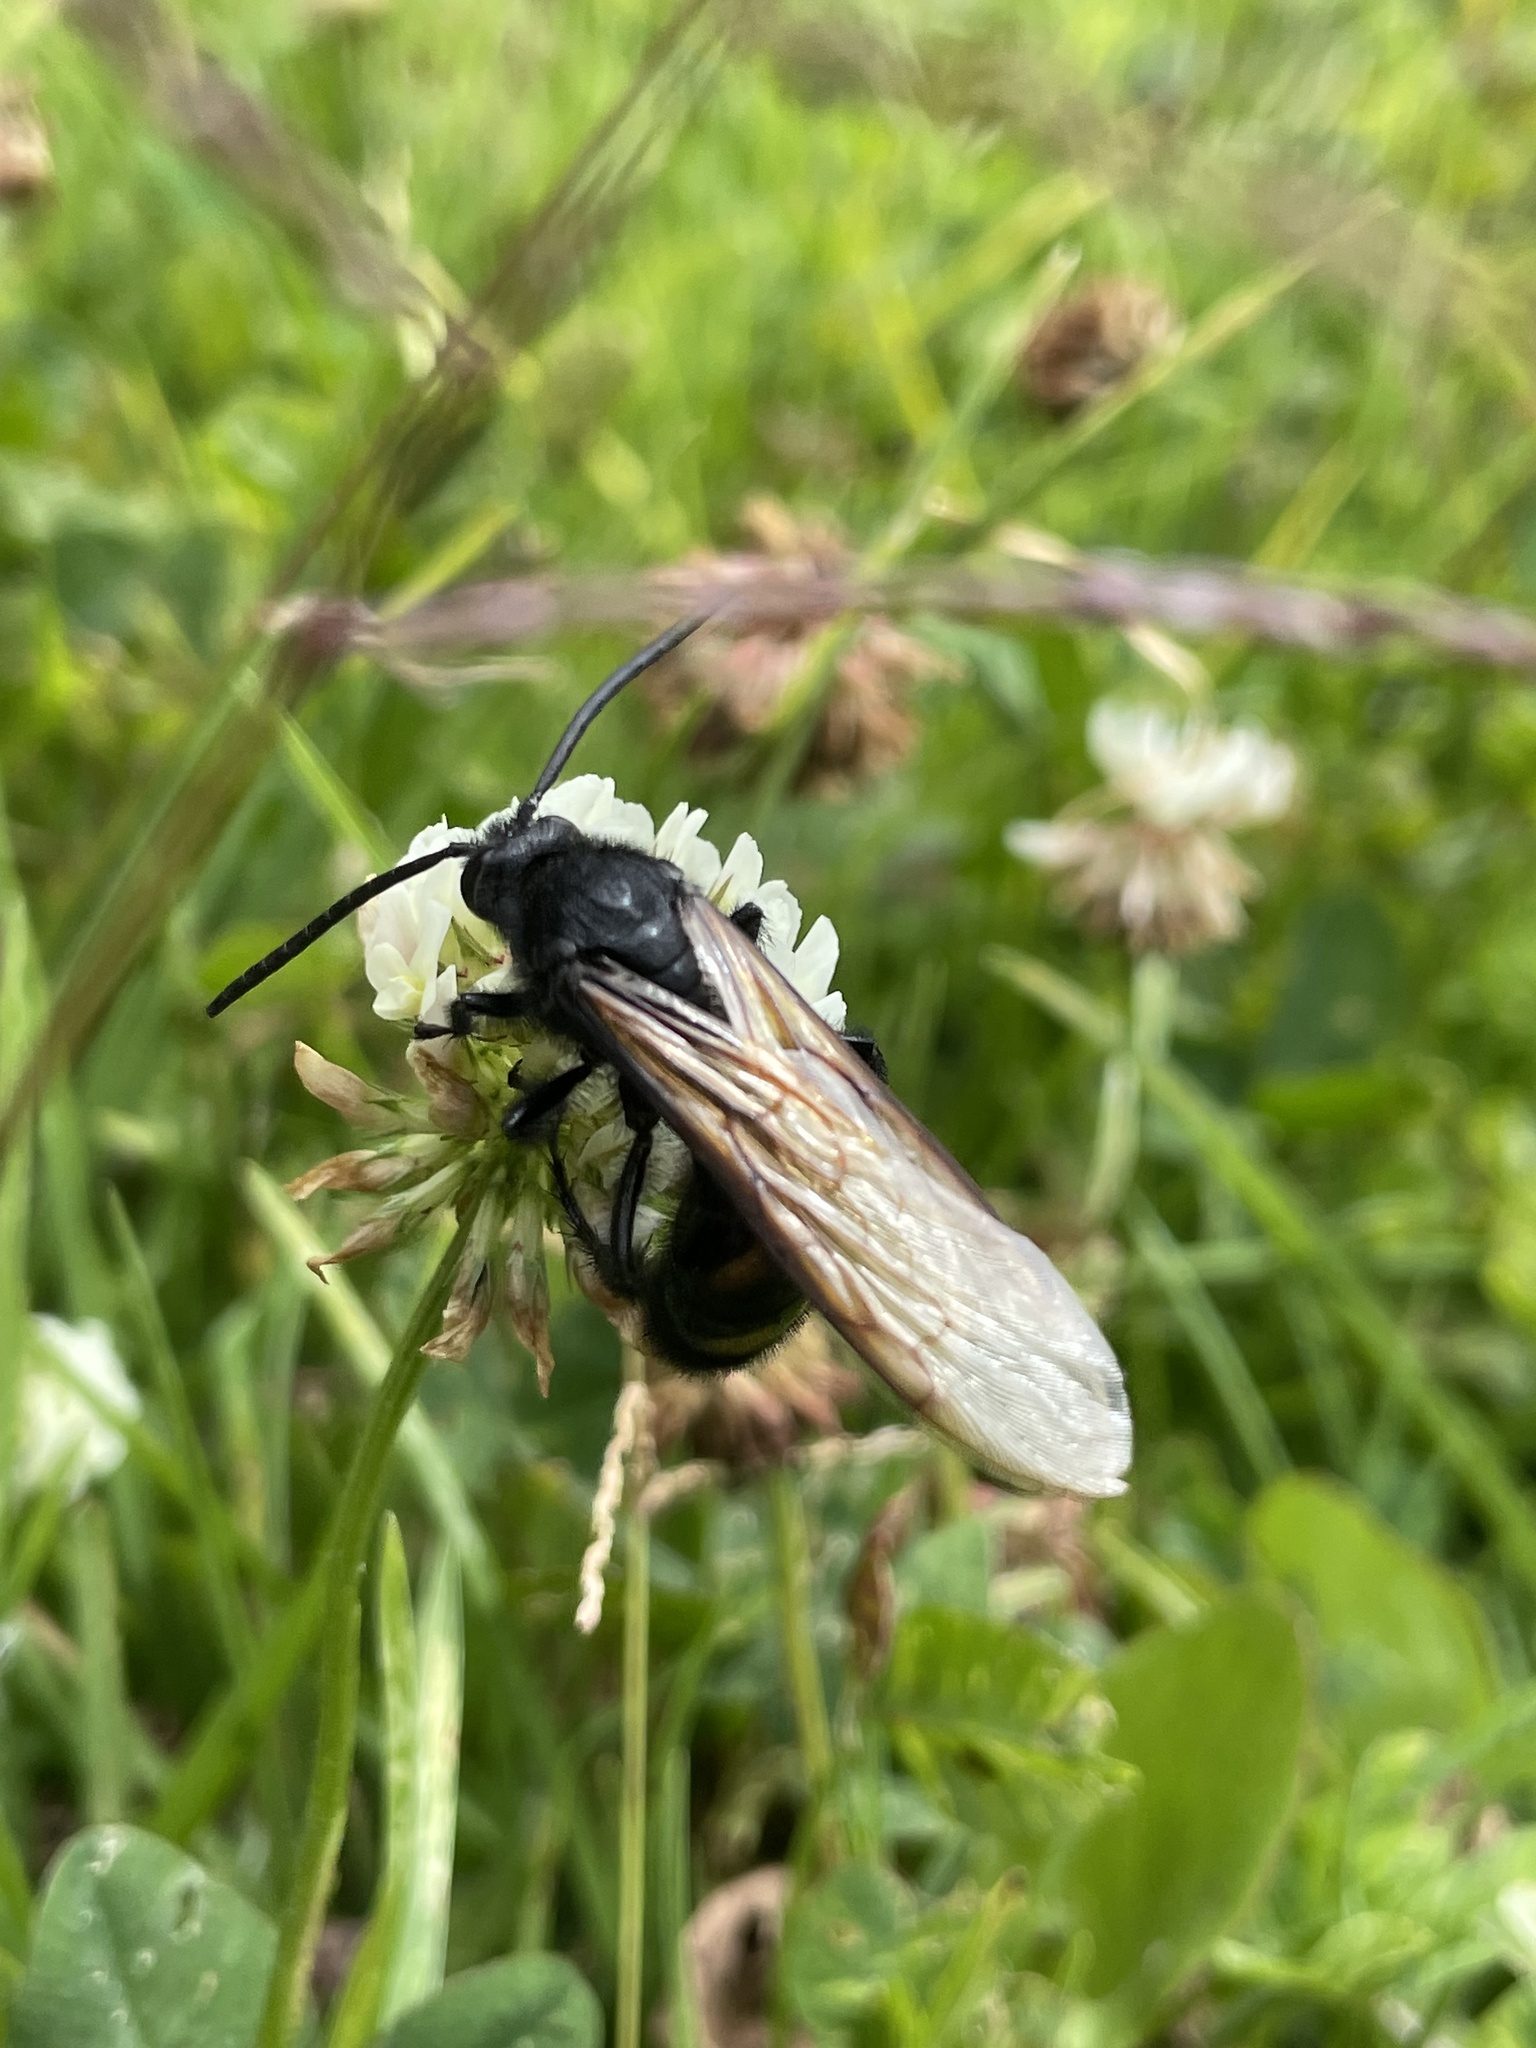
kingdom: Animalia
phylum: Arthropoda
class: Insecta
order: Hymenoptera
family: Scoliidae
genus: Pygodasis
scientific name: Pygodasis ephippium
